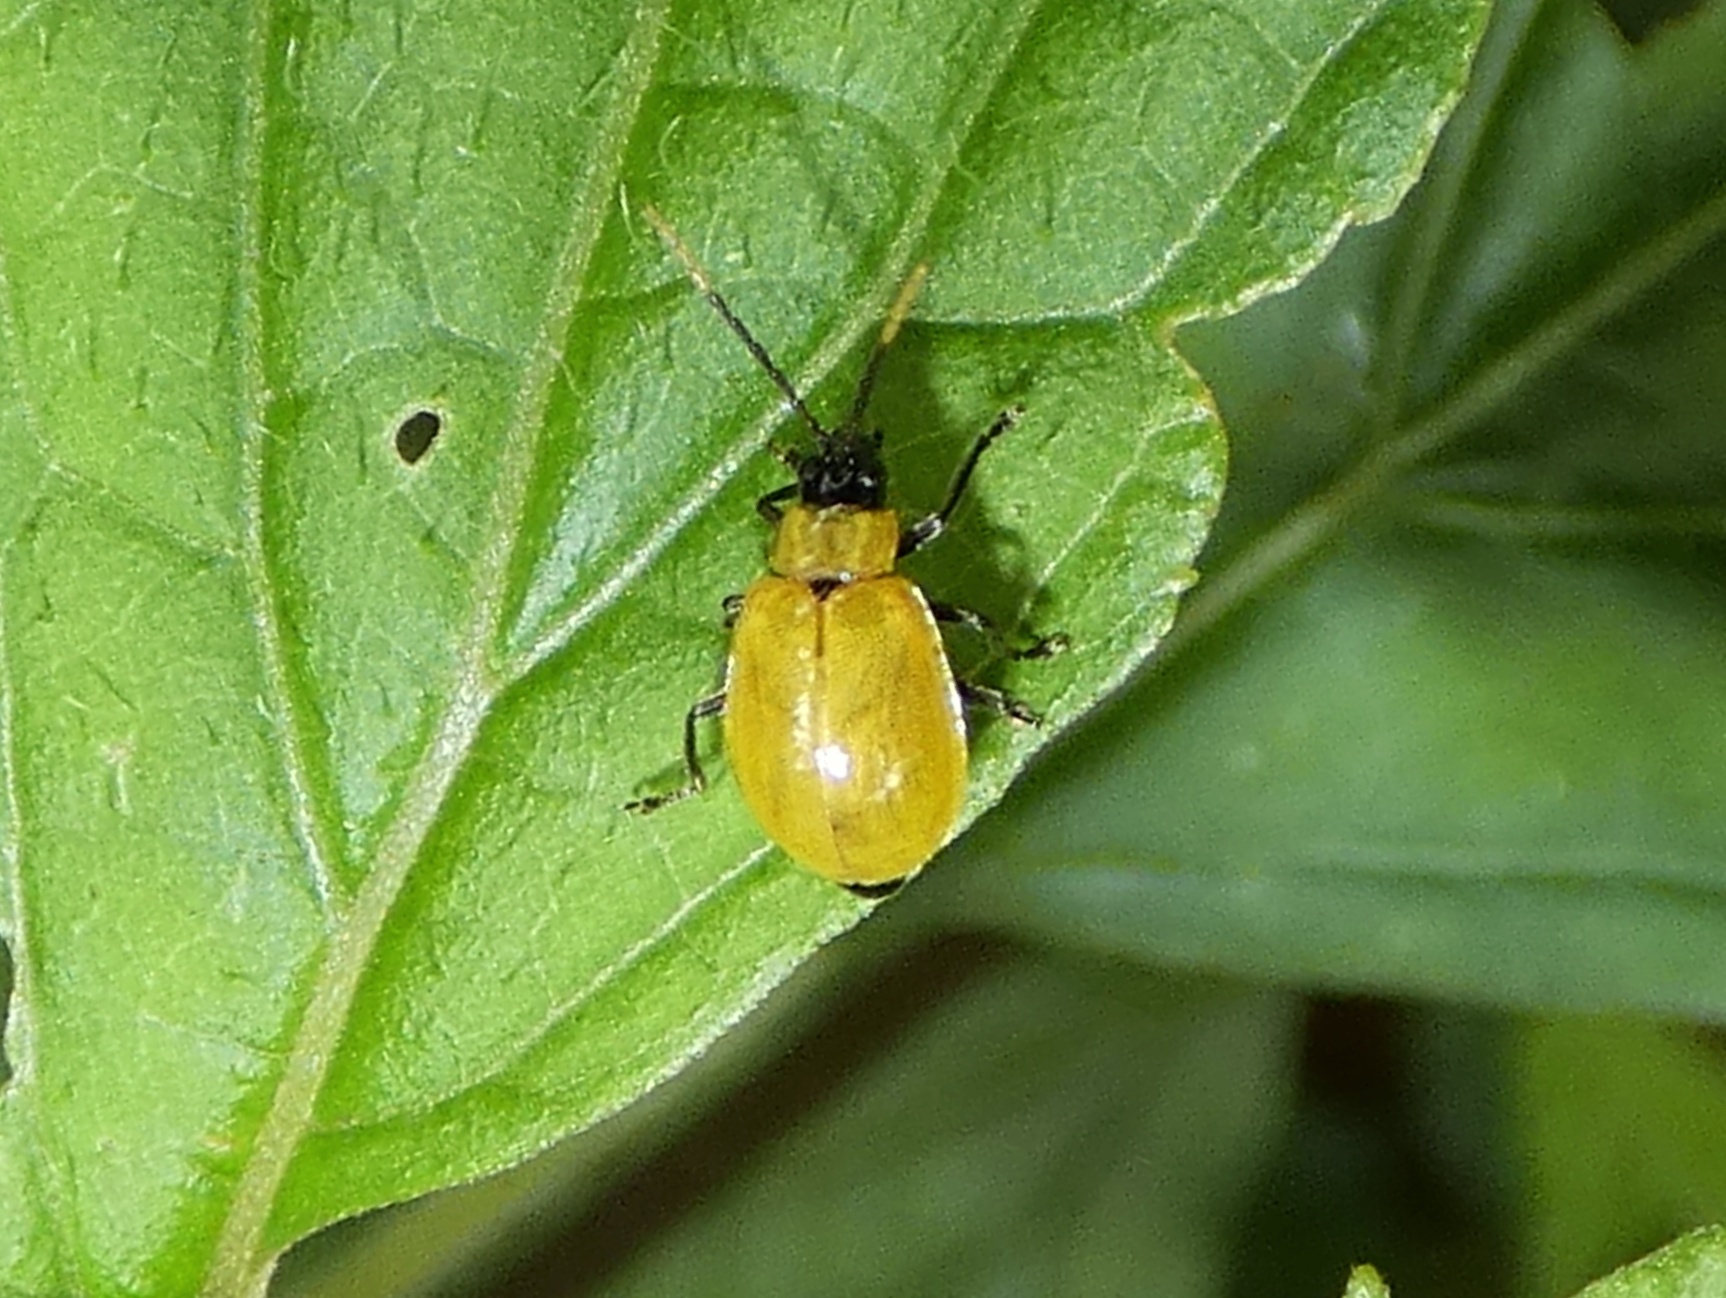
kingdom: Animalia
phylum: Arthropoda
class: Insecta
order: Coleoptera
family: Chrysomelidae
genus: Isotes
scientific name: Isotes
